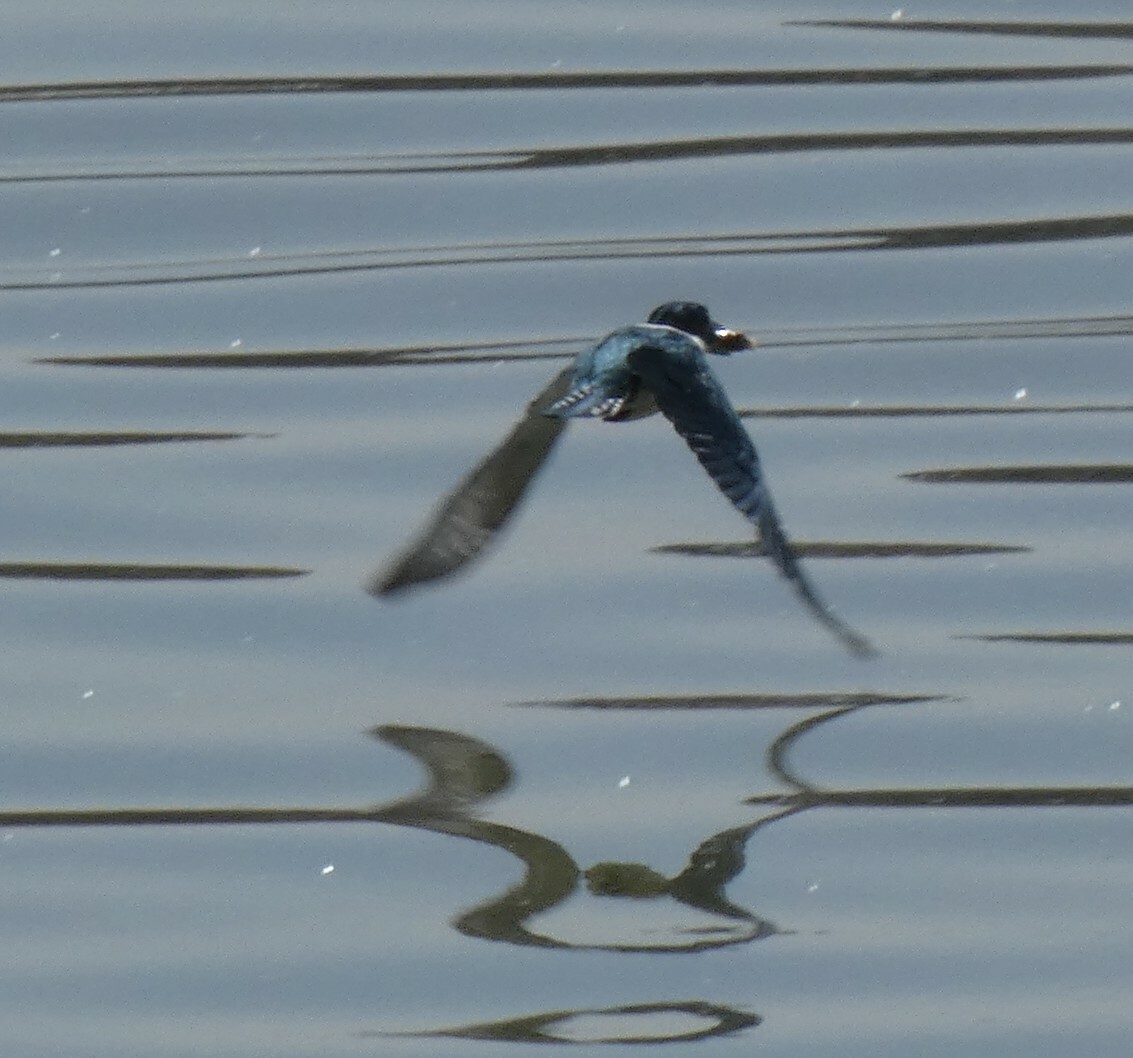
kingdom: Animalia
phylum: Chordata
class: Aves
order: Coraciiformes
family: Alcedinidae
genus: Megaceryle
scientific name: Megaceryle torquata
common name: Ringed kingfisher
